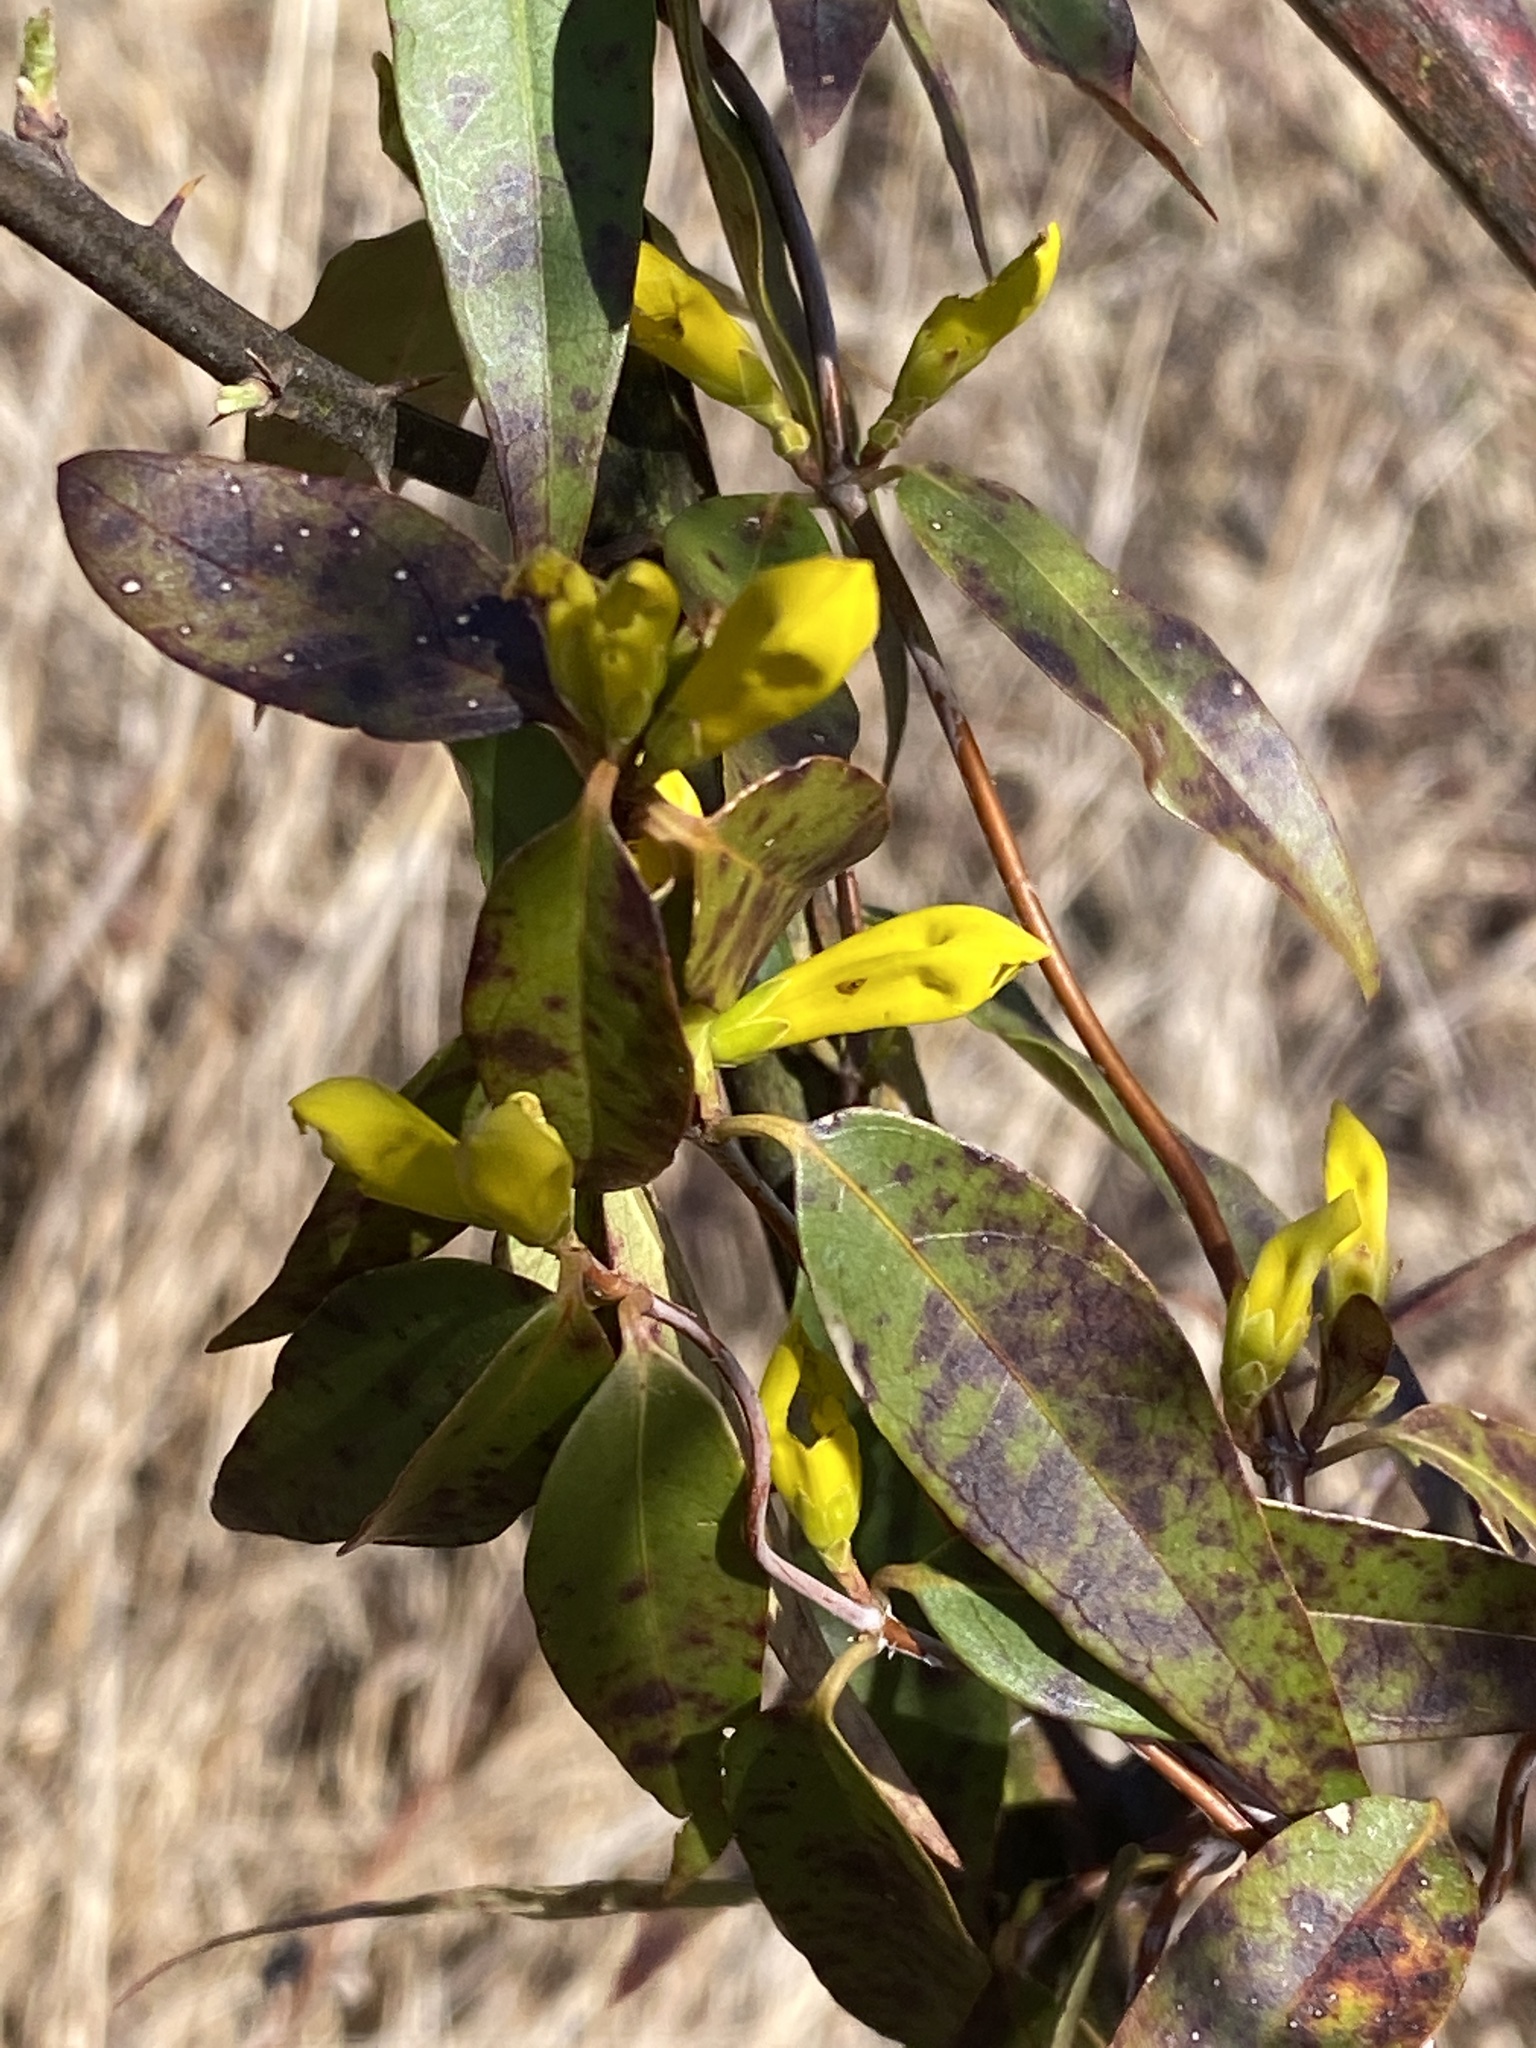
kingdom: Plantae
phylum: Tracheophyta
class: Magnoliopsida
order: Gentianales
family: Gelsemiaceae
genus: Gelsemium
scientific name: Gelsemium sempervirens
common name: Carolina-jasmine
